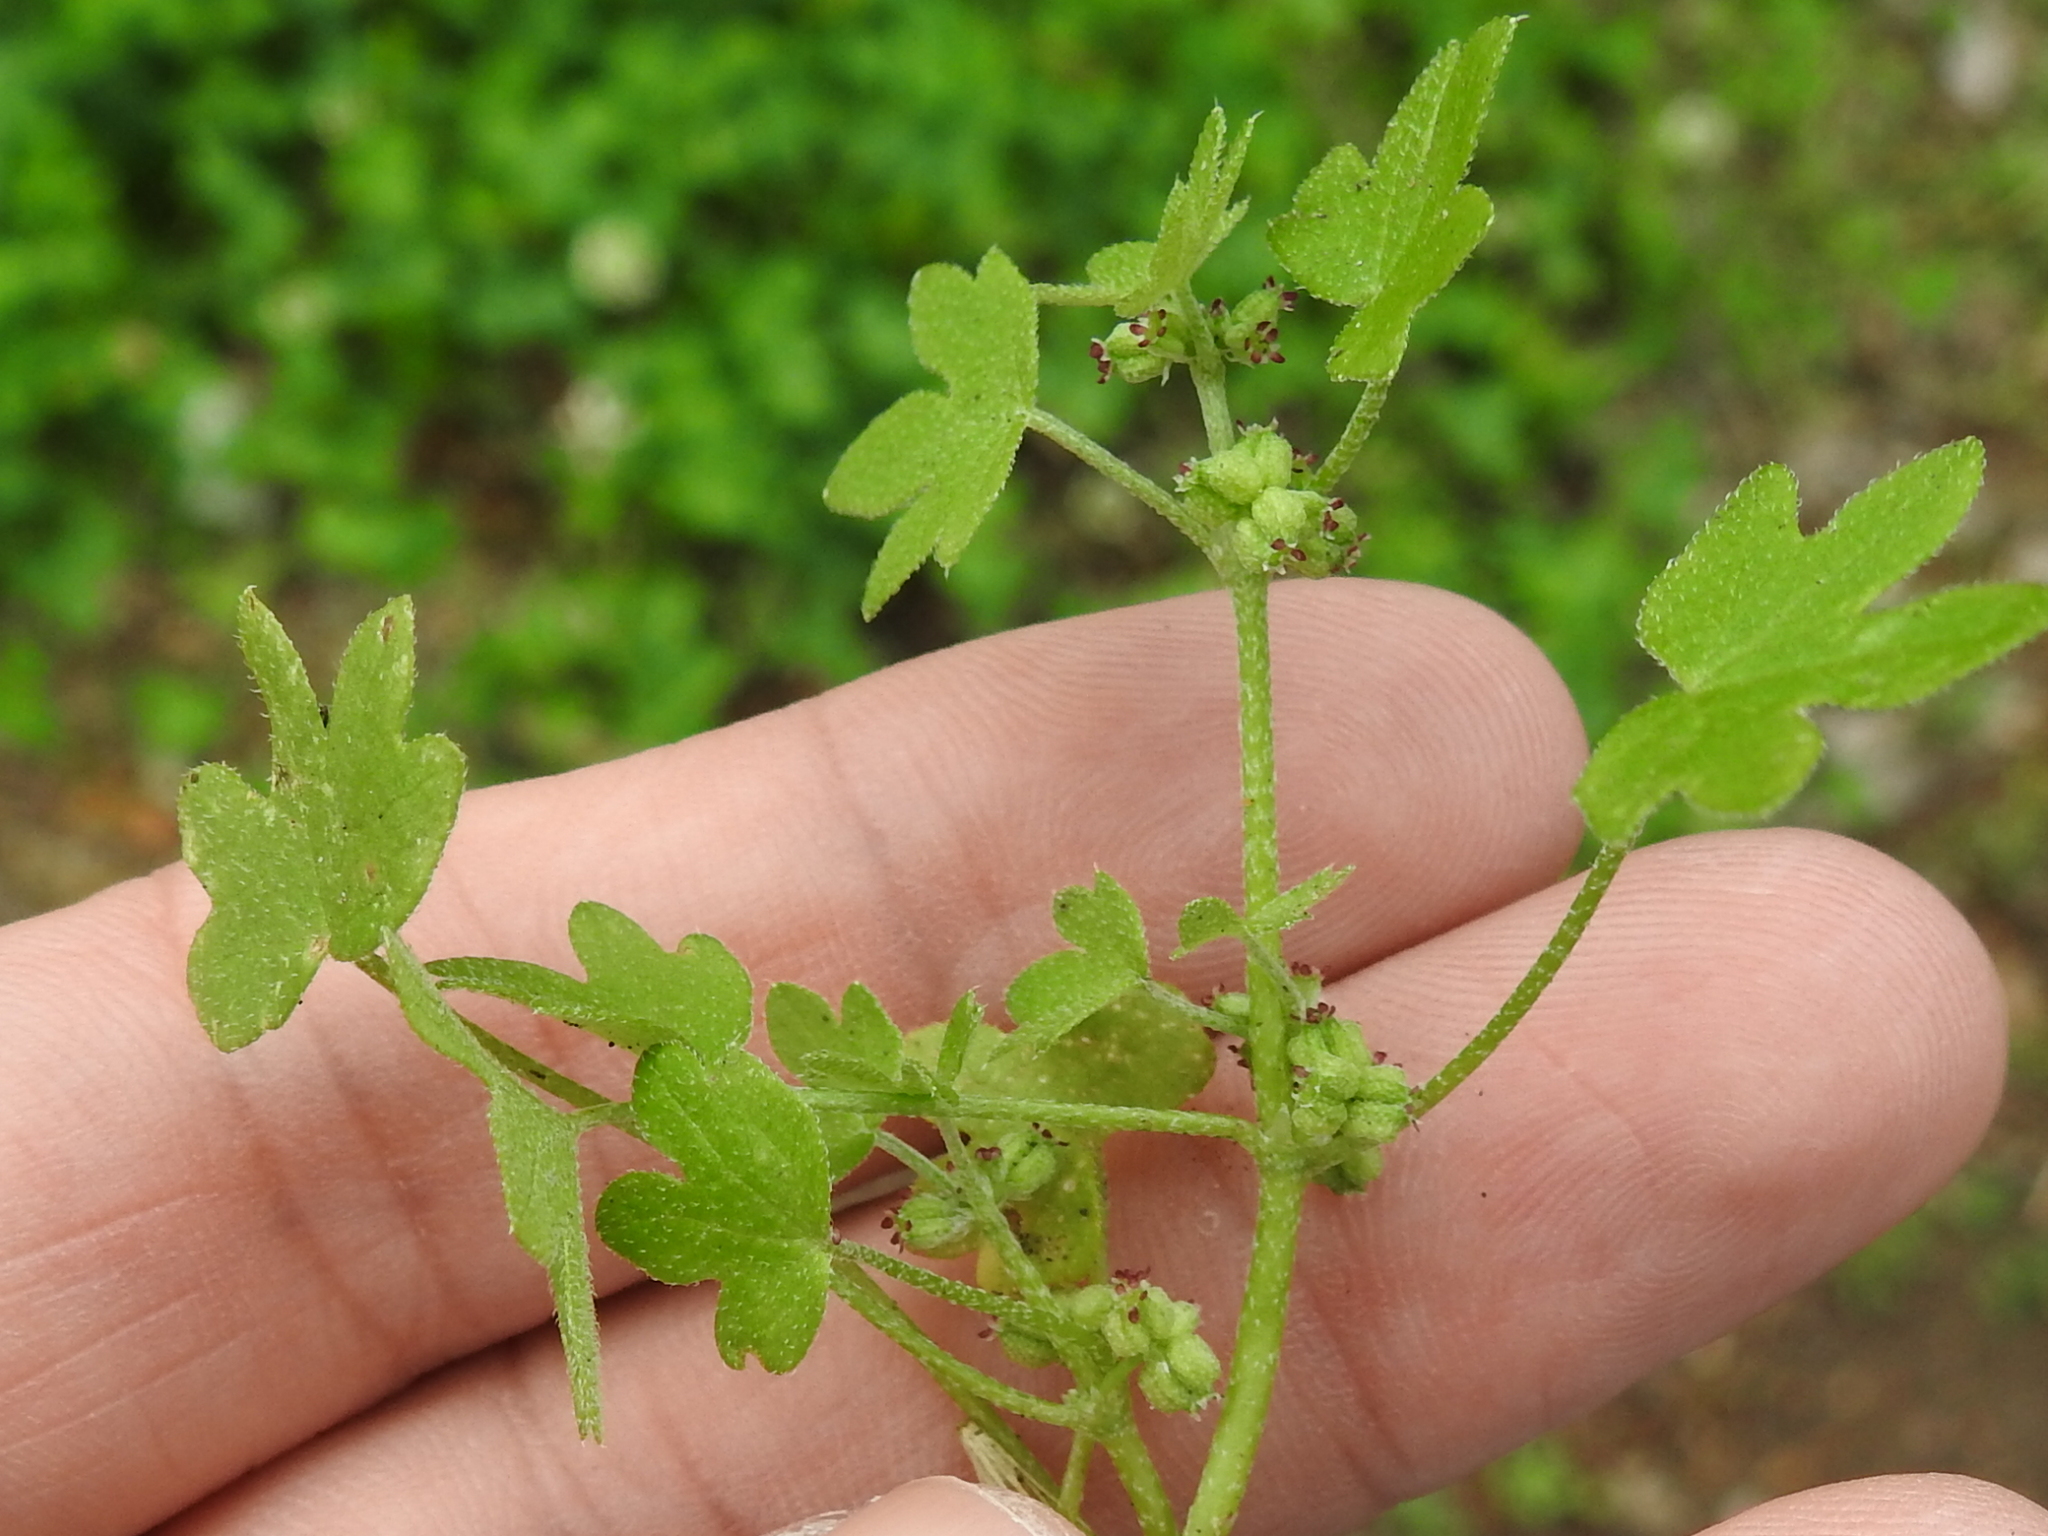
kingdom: Plantae
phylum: Tracheophyta
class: Magnoliopsida
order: Apiales
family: Apiaceae
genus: Bowlesia
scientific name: Bowlesia incana
